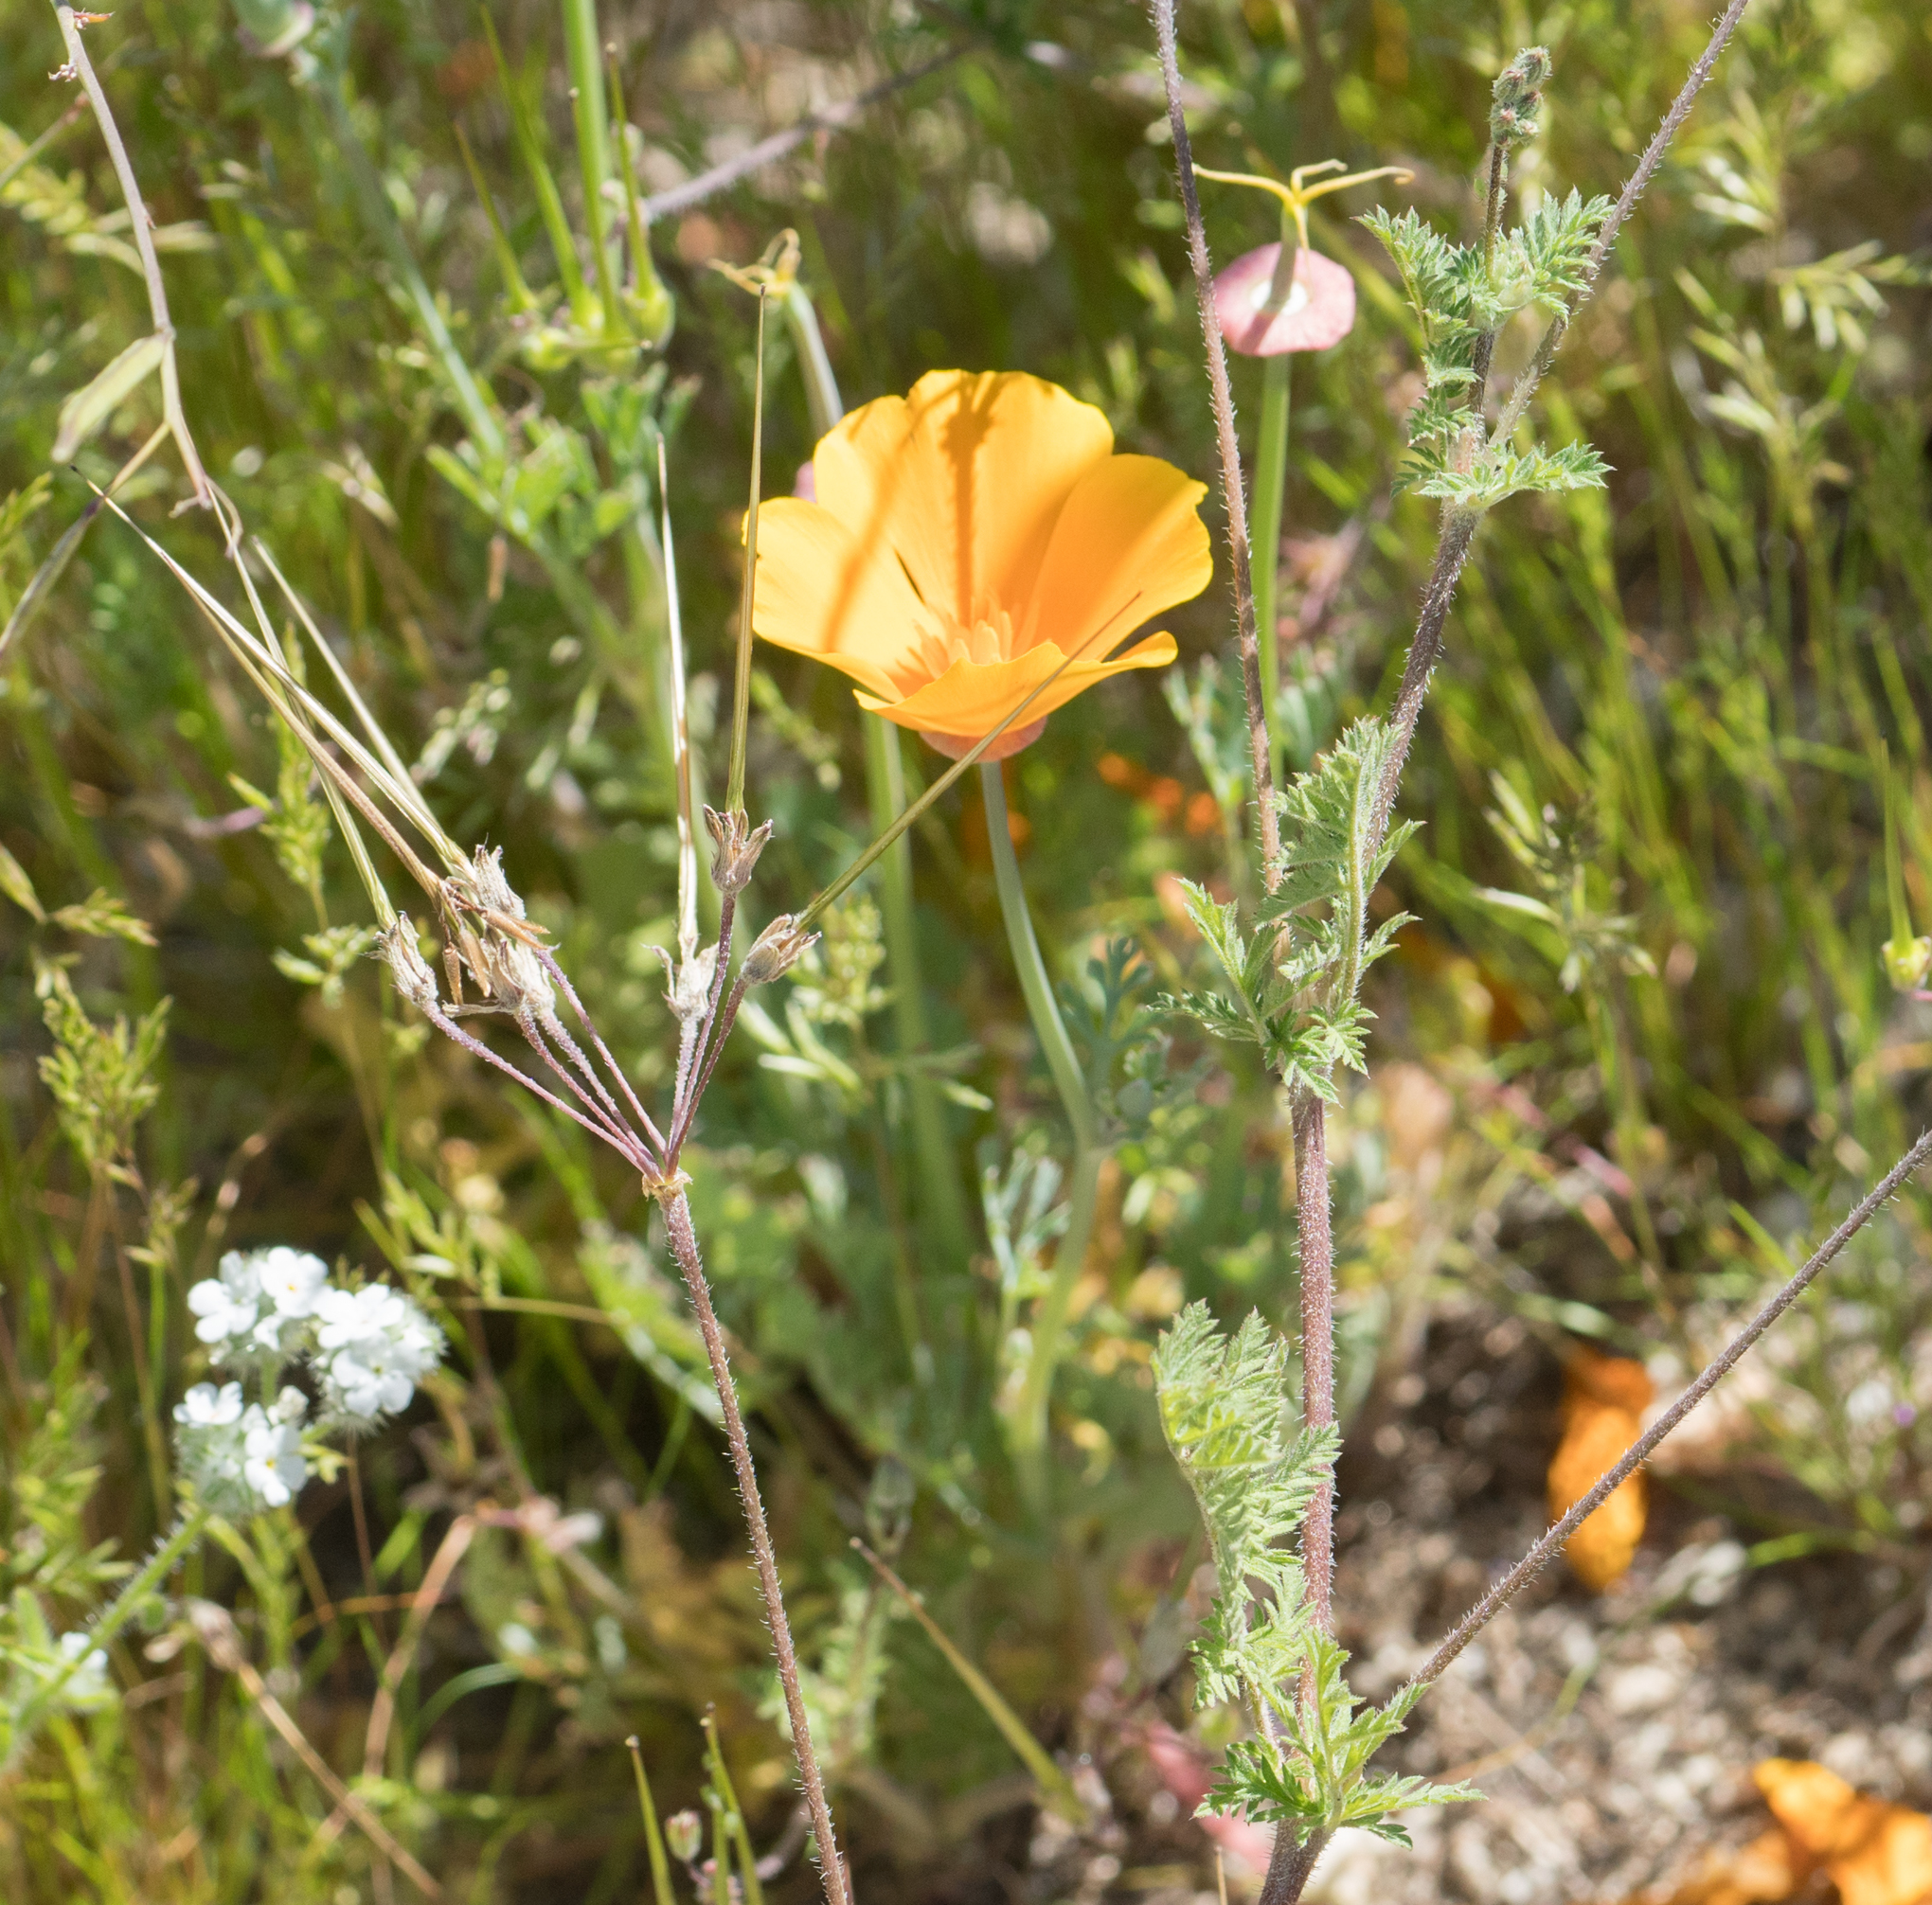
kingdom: Plantae
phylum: Tracheophyta
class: Magnoliopsida
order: Ranunculales
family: Papaveraceae
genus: Eschscholzia
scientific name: Eschscholzia californica
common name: California poppy
